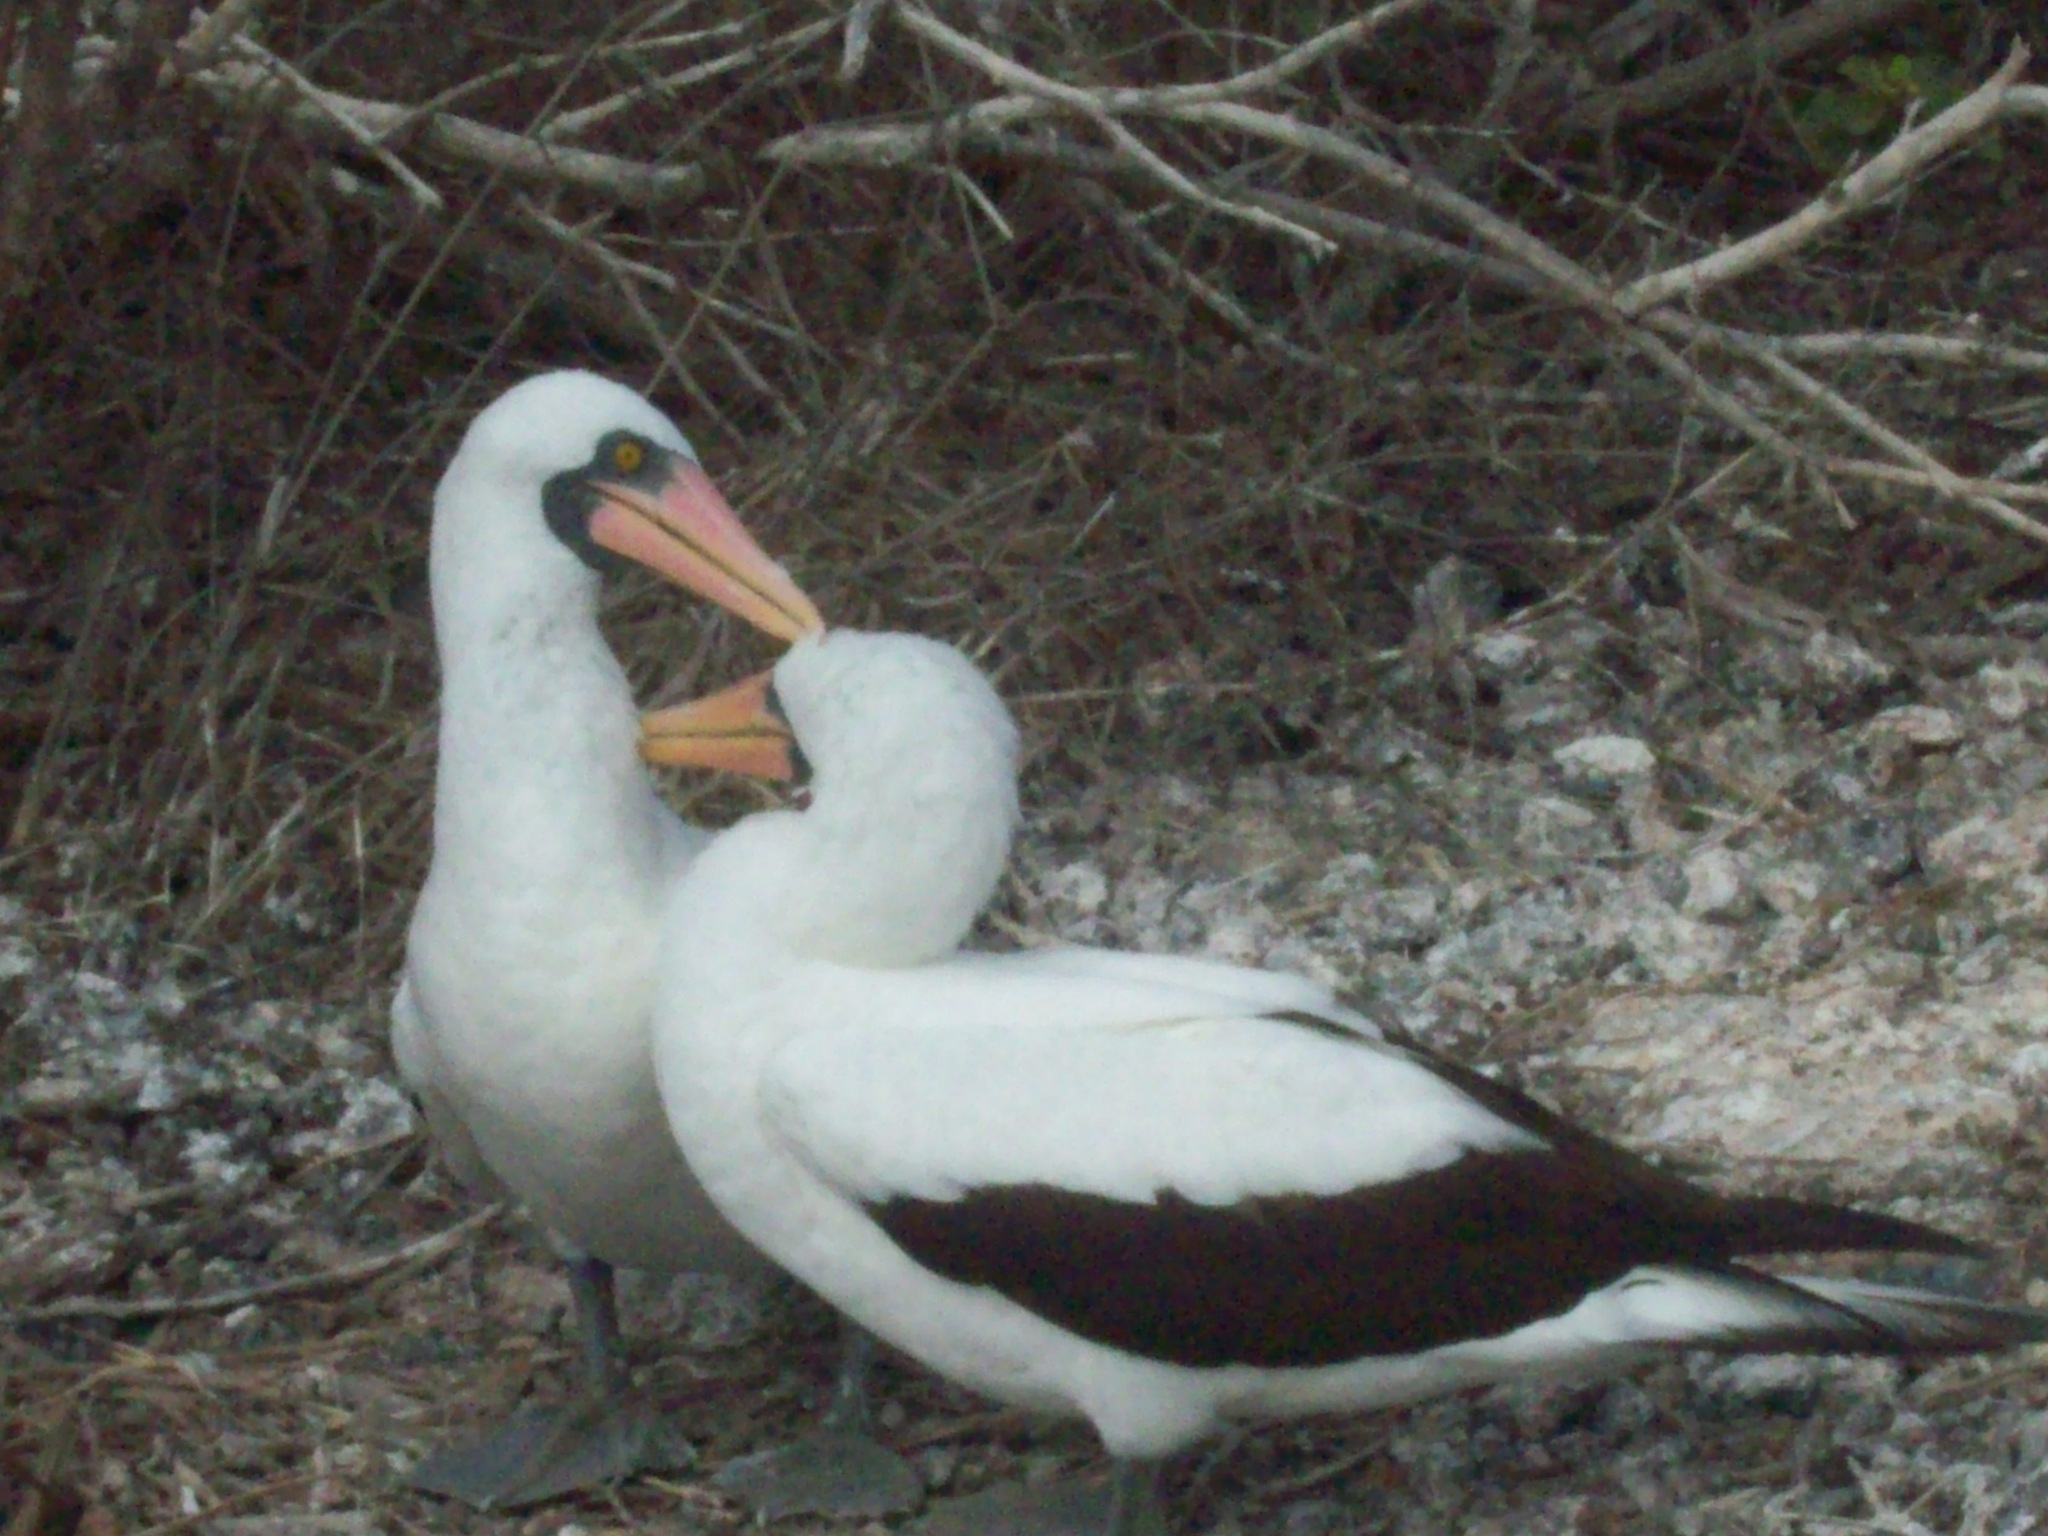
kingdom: Animalia
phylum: Chordata
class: Aves
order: Suliformes
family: Sulidae
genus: Sula
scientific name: Sula granti
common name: Nazca booby
